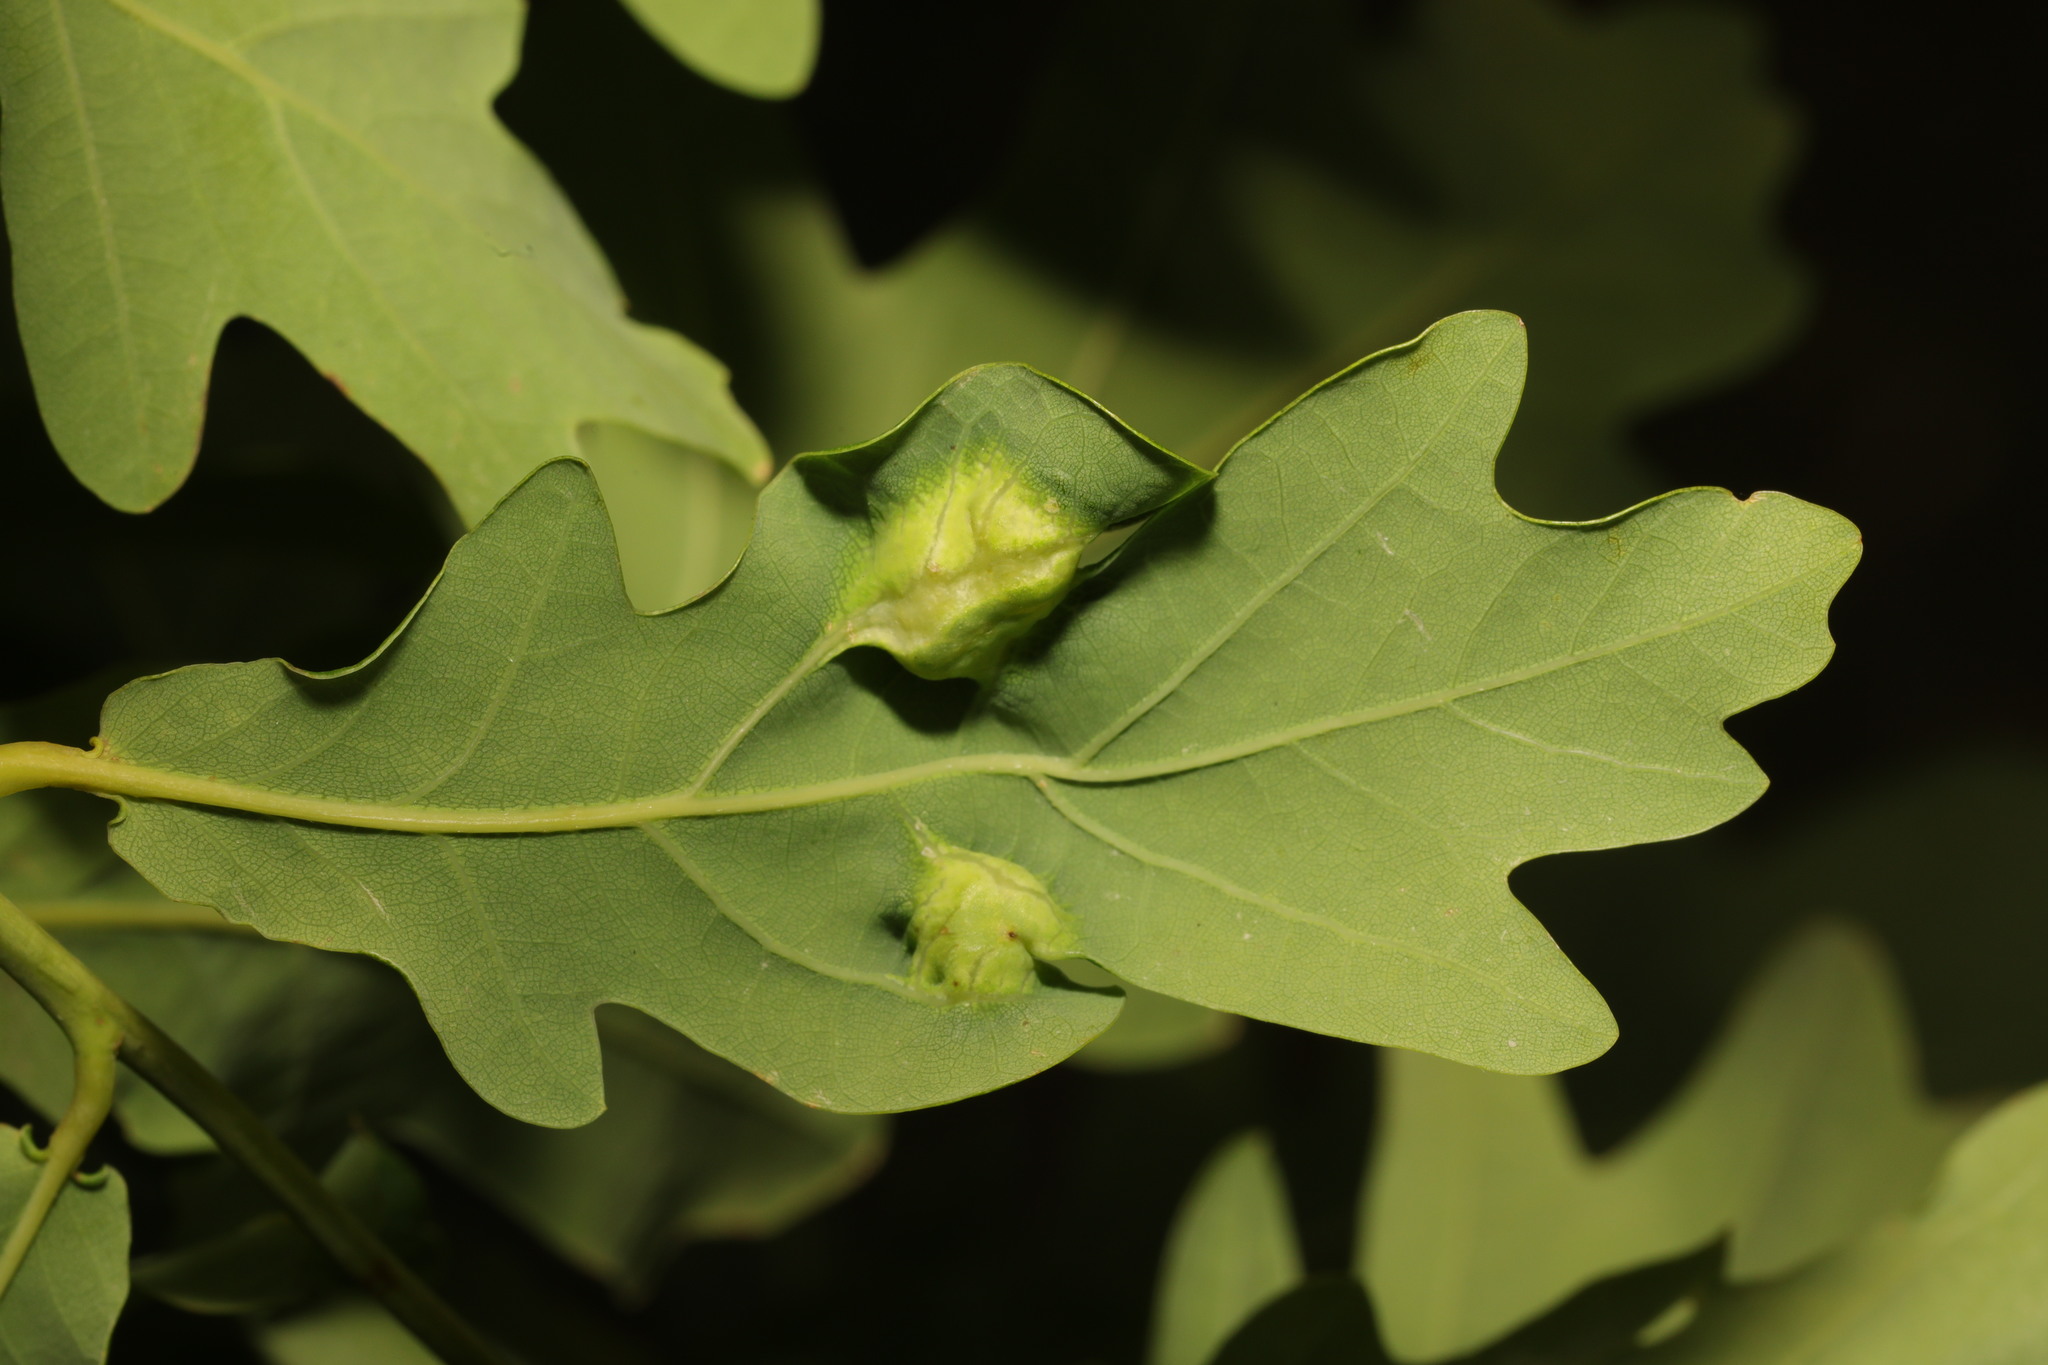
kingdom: Animalia
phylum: Arthropoda
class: Insecta
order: Hymenoptera
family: Cynipidae
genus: Andricus
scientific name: Andricus curvator
